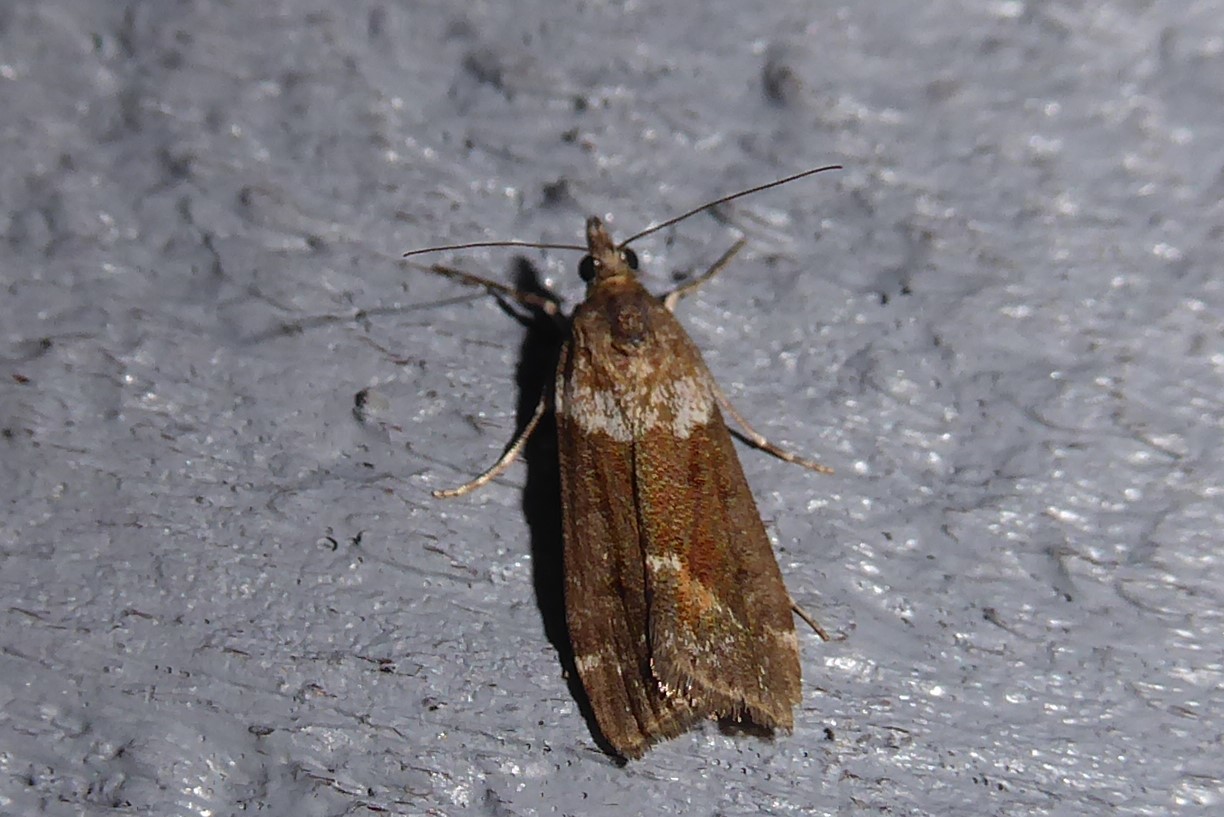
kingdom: Animalia
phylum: Arthropoda
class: Insecta
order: Lepidoptera
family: Crambidae
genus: Eudonia
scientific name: Eudonia submarginalis
